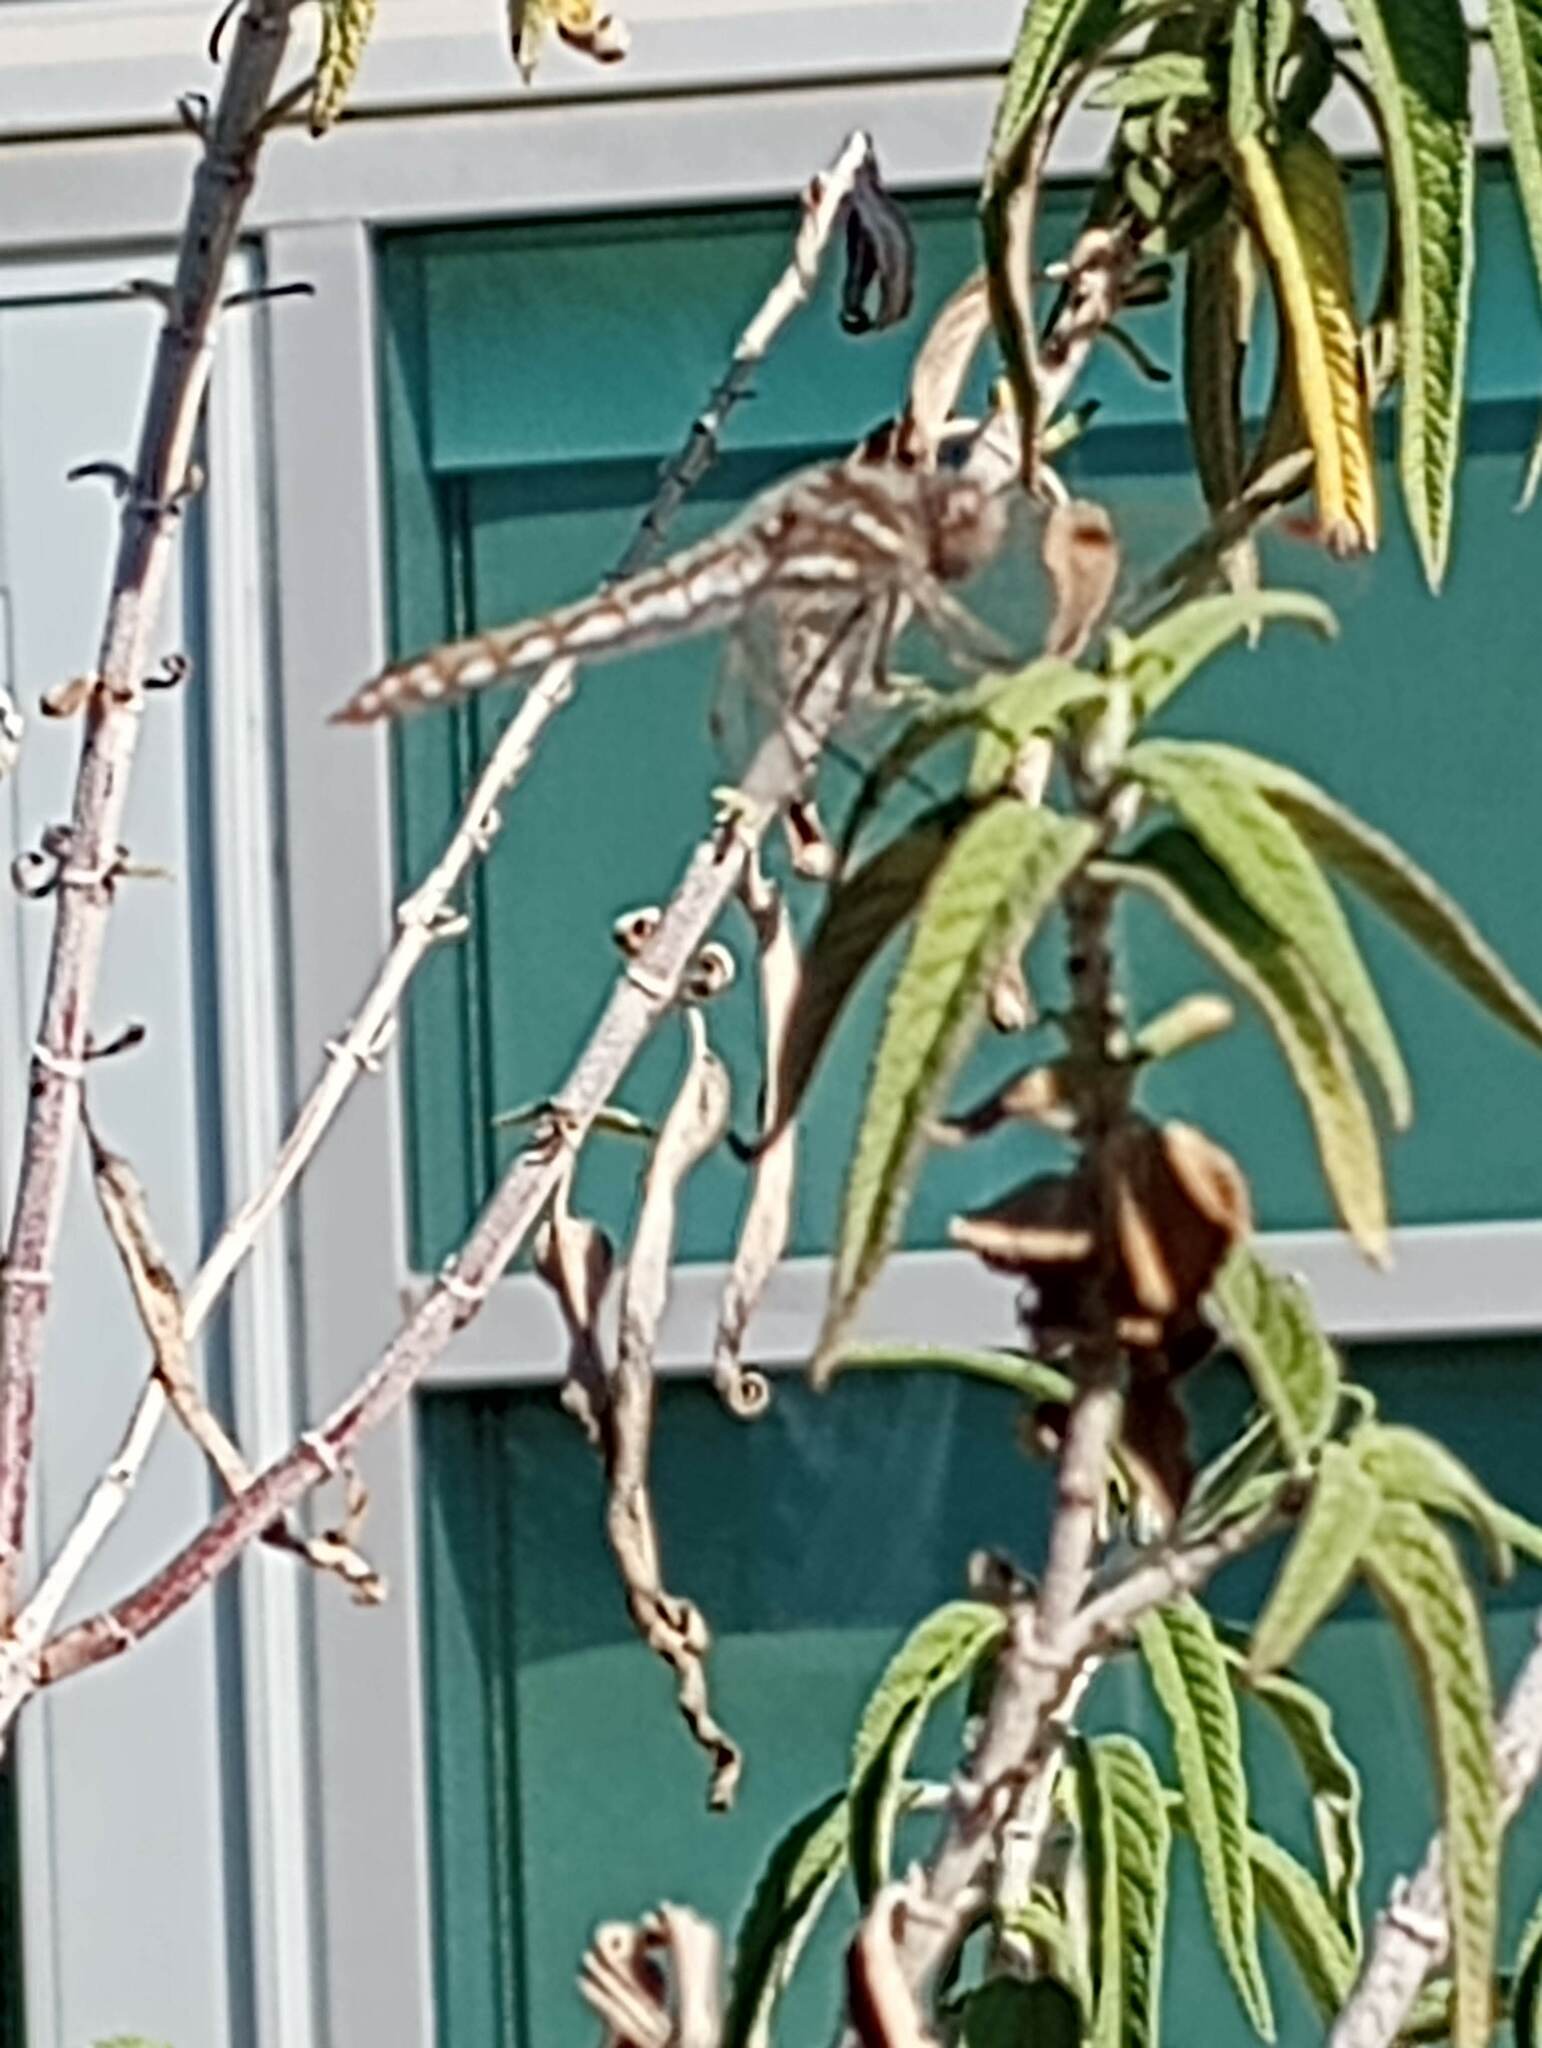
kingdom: Animalia
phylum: Arthropoda
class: Insecta
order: Odonata
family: Libellulidae
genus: Sympetrum
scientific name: Sympetrum corruptum
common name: Variegated meadowhawk
